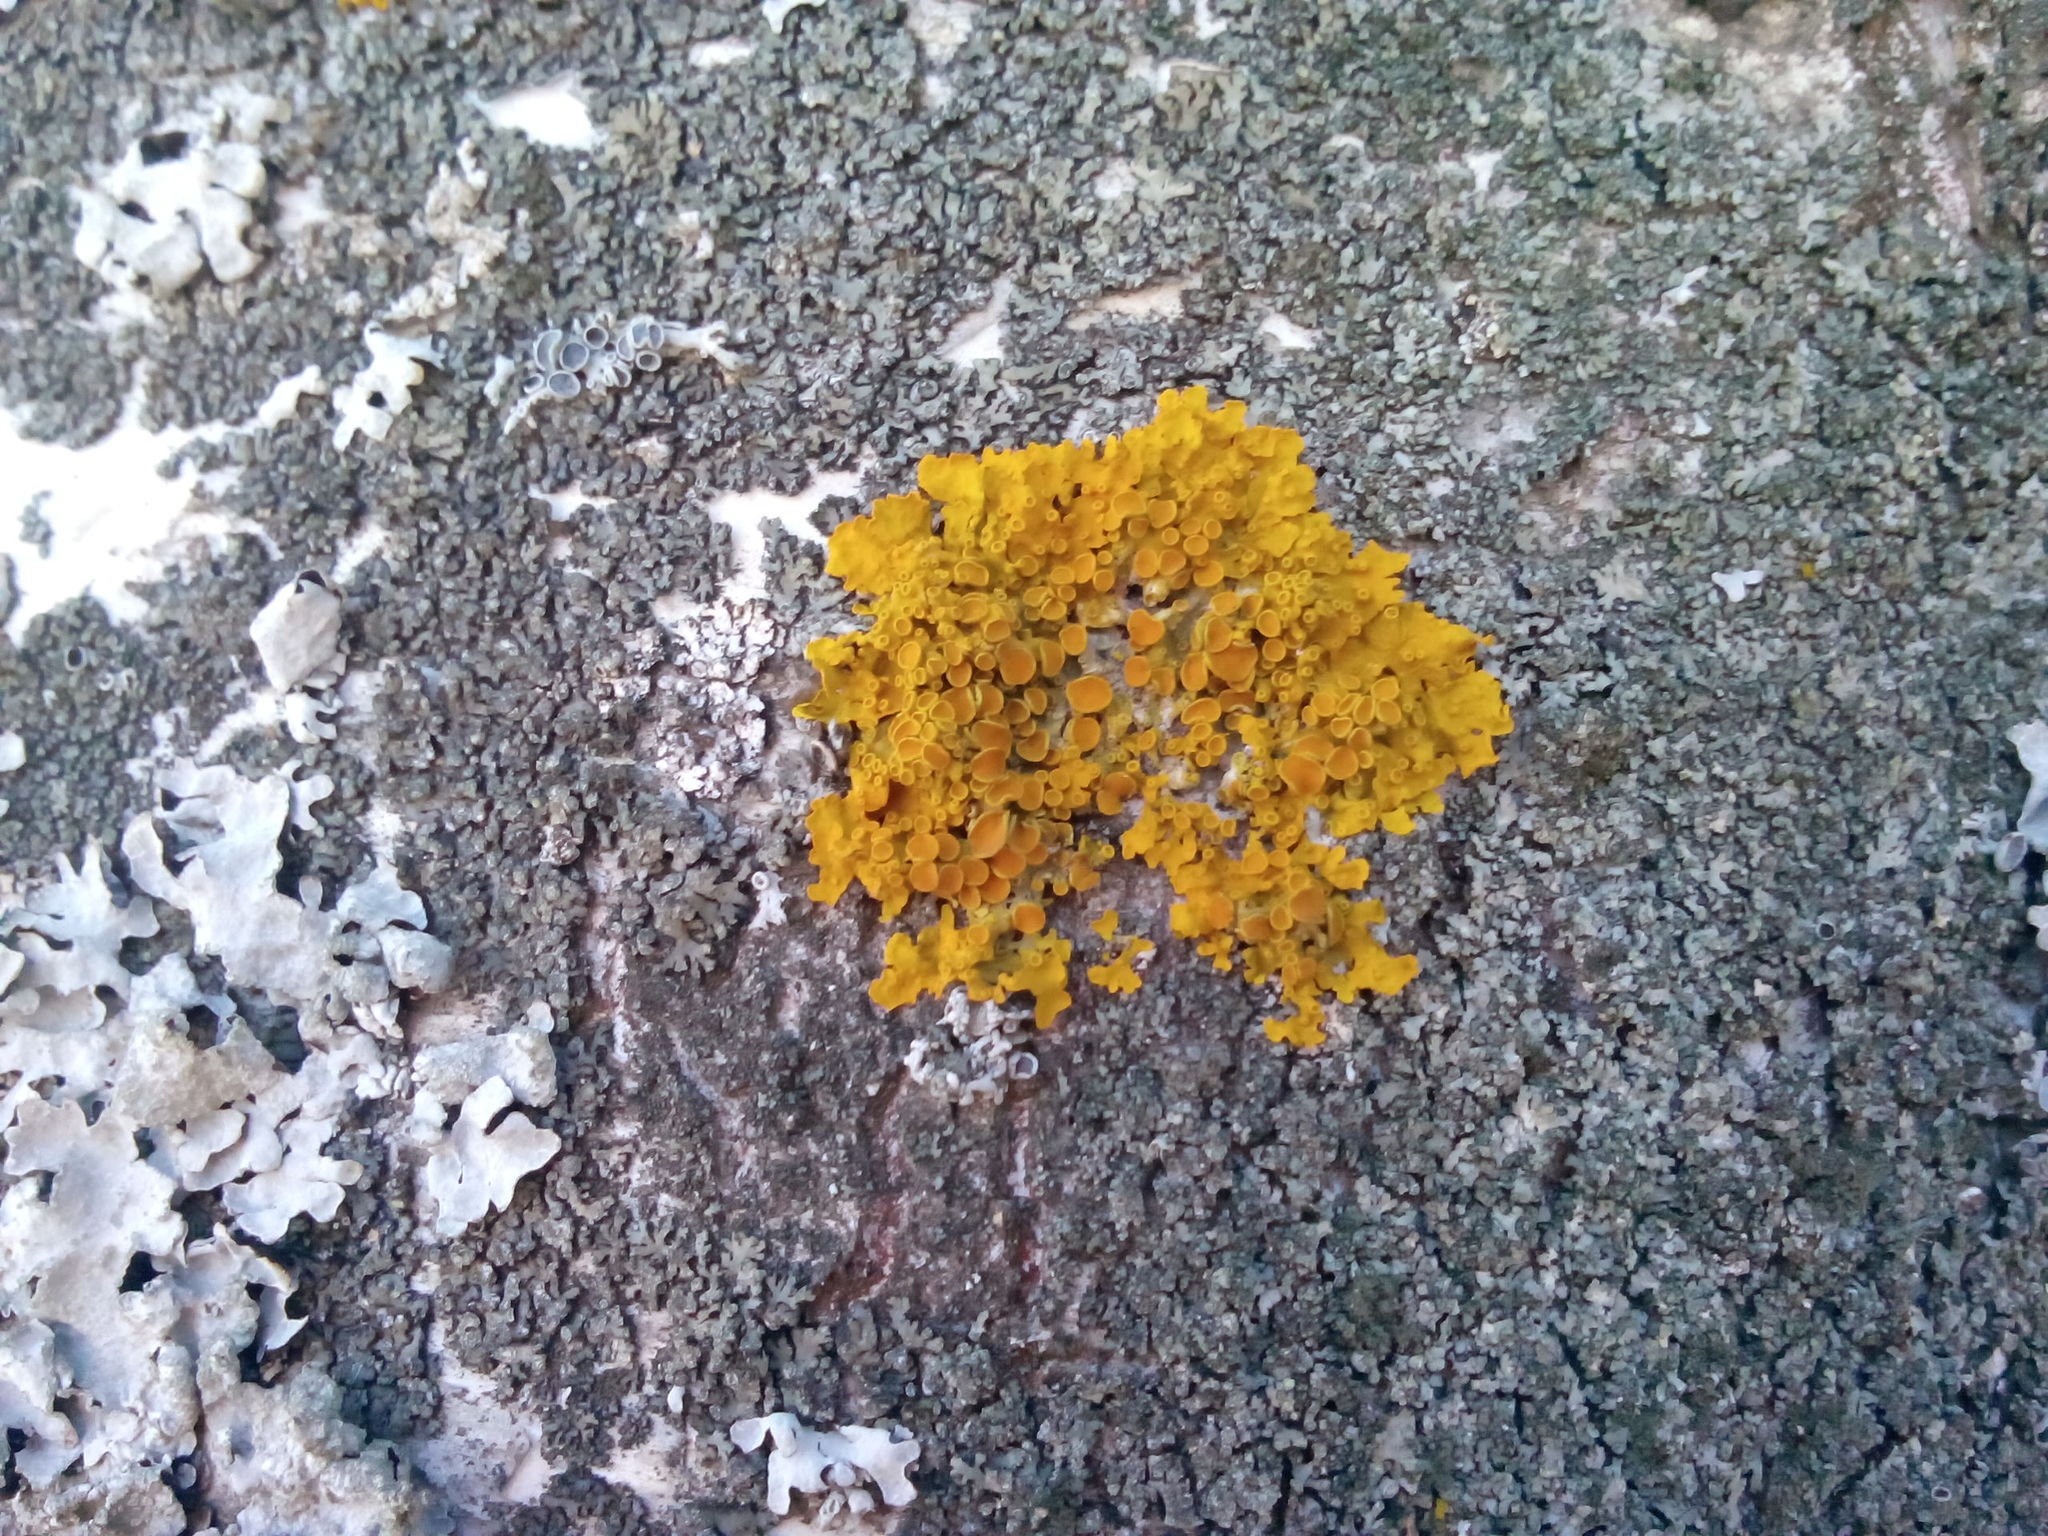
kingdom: Fungi
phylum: Ascomycota
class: Lecanoromycetes
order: Teloschistales
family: Teloschistaceae
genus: Xanthoria
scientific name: Xanthoria parietina
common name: Common orange lichen
